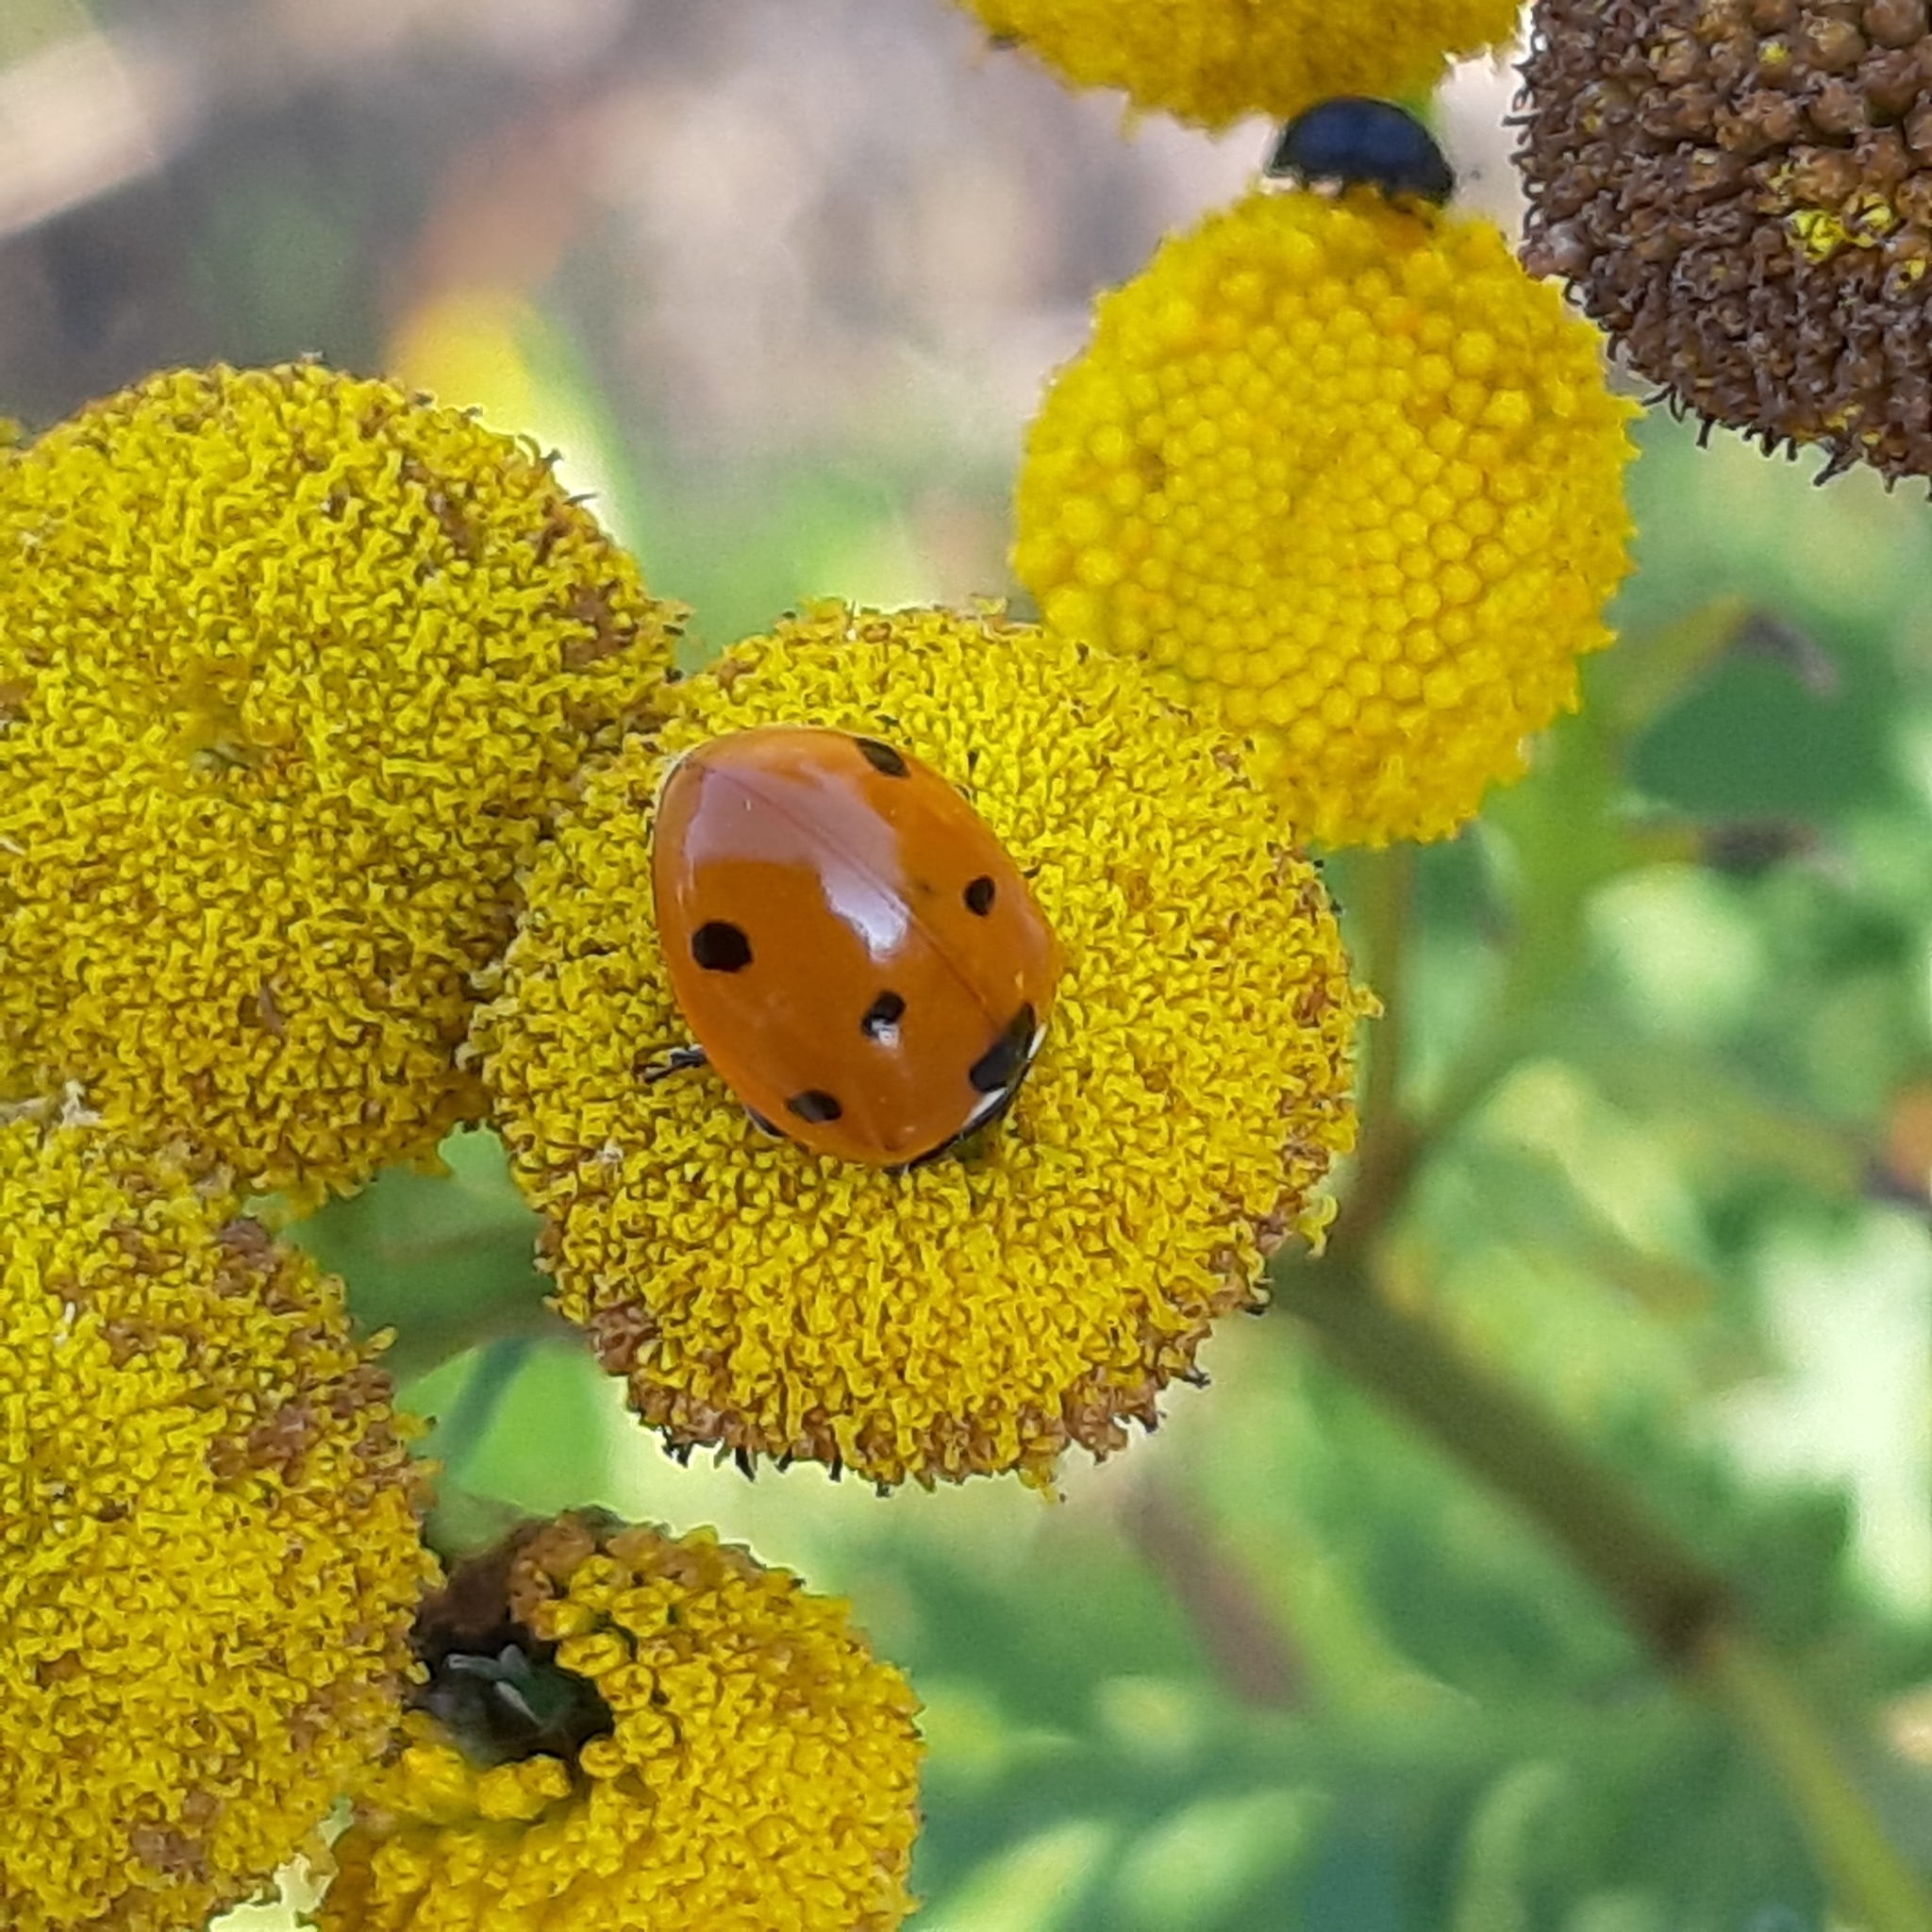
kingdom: Animalia
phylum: Arthropoda
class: Insecta
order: Coleoptera
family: Coccinellidae
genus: Coccinella
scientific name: Coccinella septempunctata
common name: Sevenspotted lady beetle
